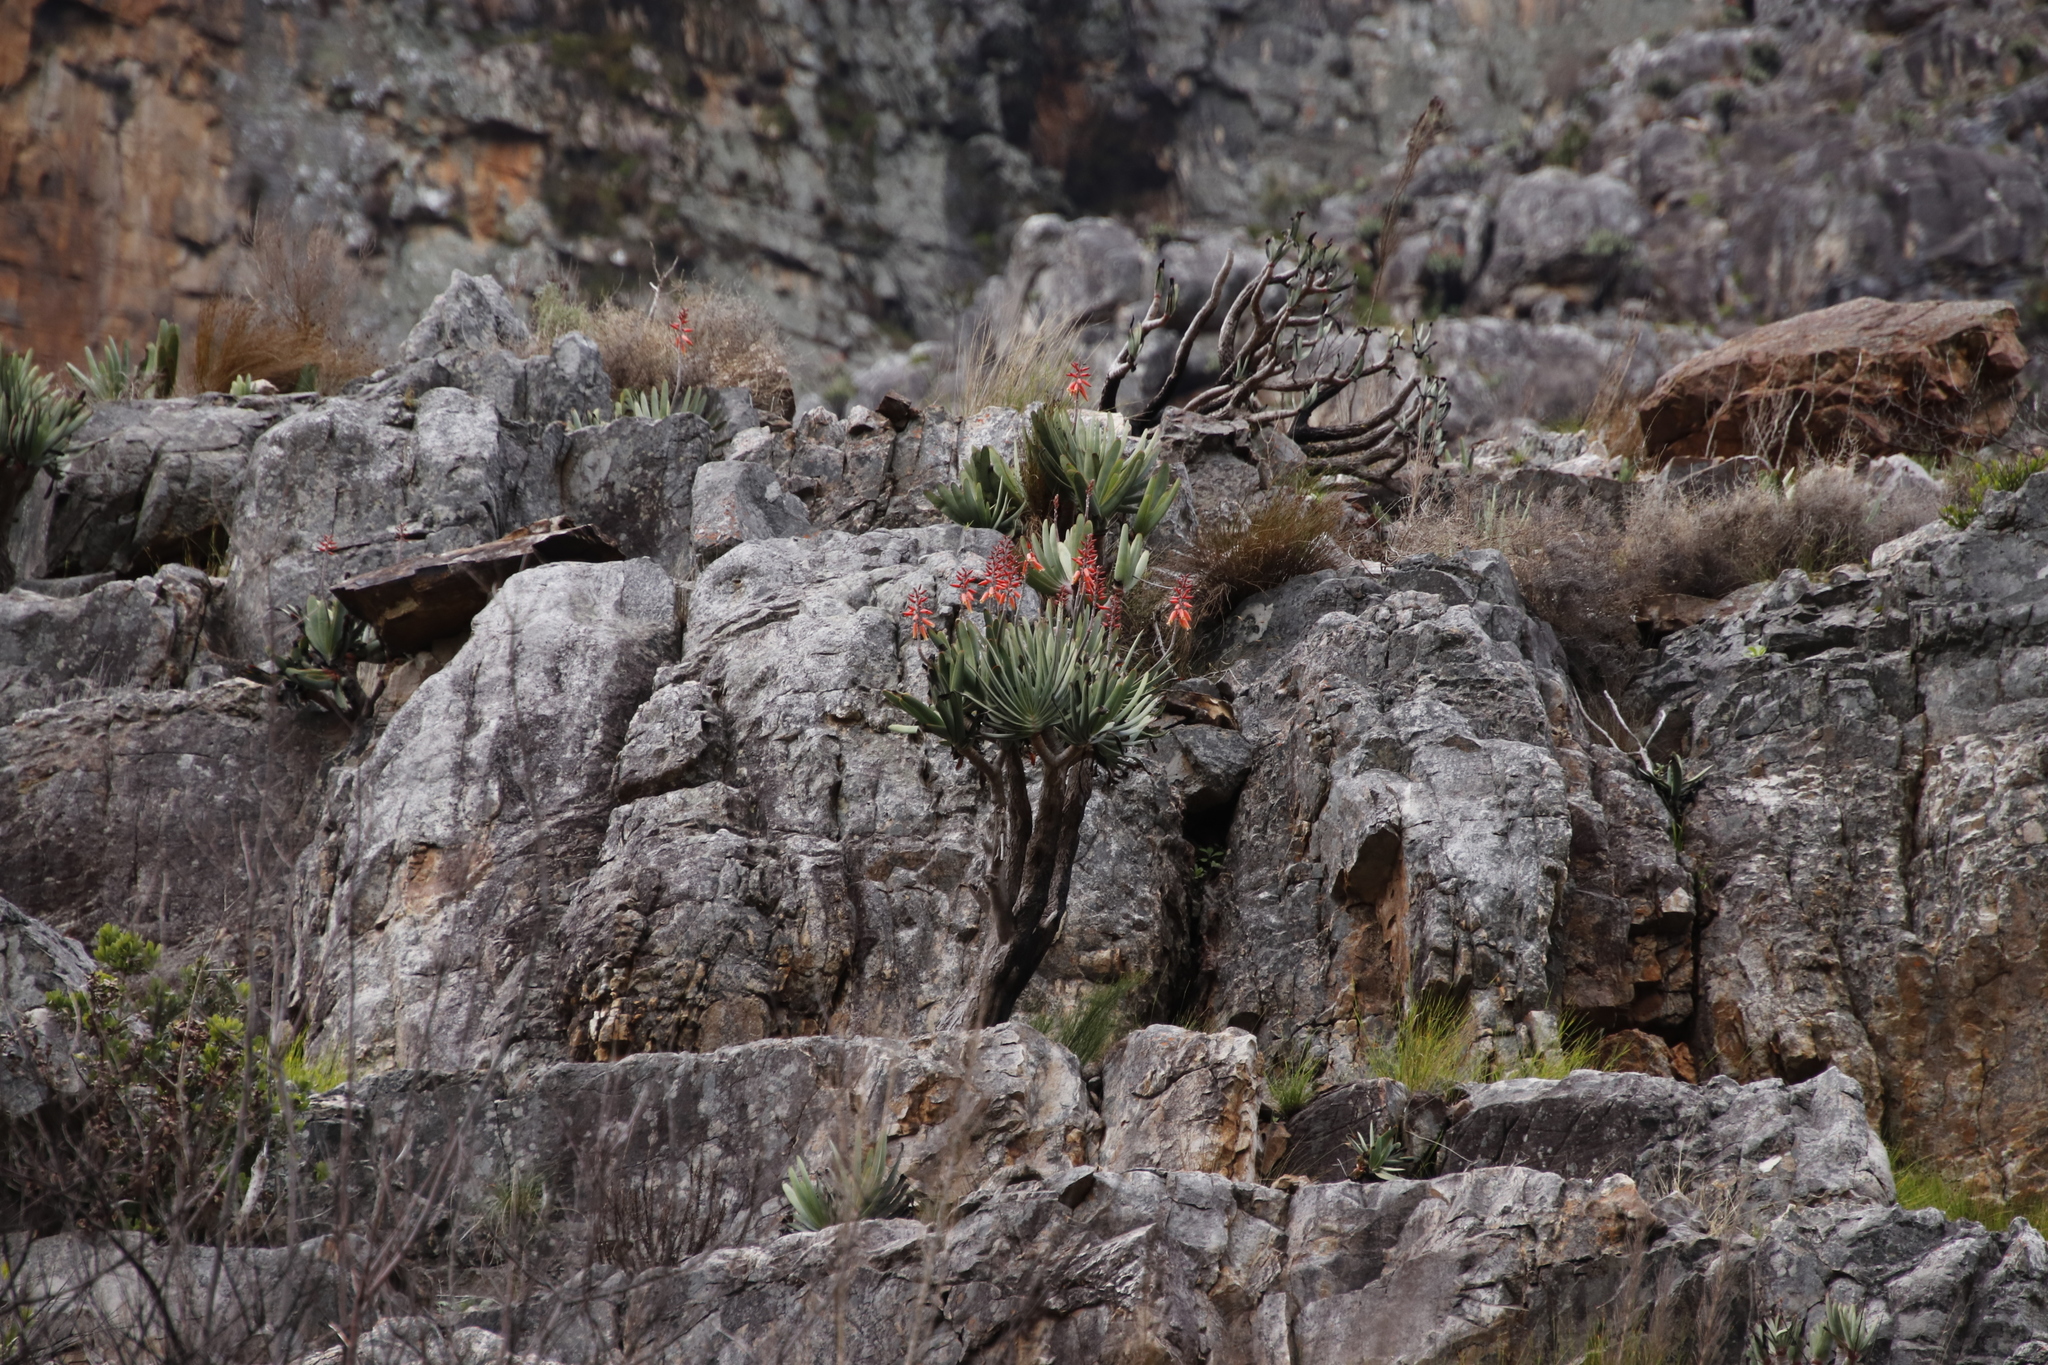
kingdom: Plantae
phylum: Tracheophyta
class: Liliopsida
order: Asparagales
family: Asphodelaceae
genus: Kumara
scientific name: Kumara plicatilis
